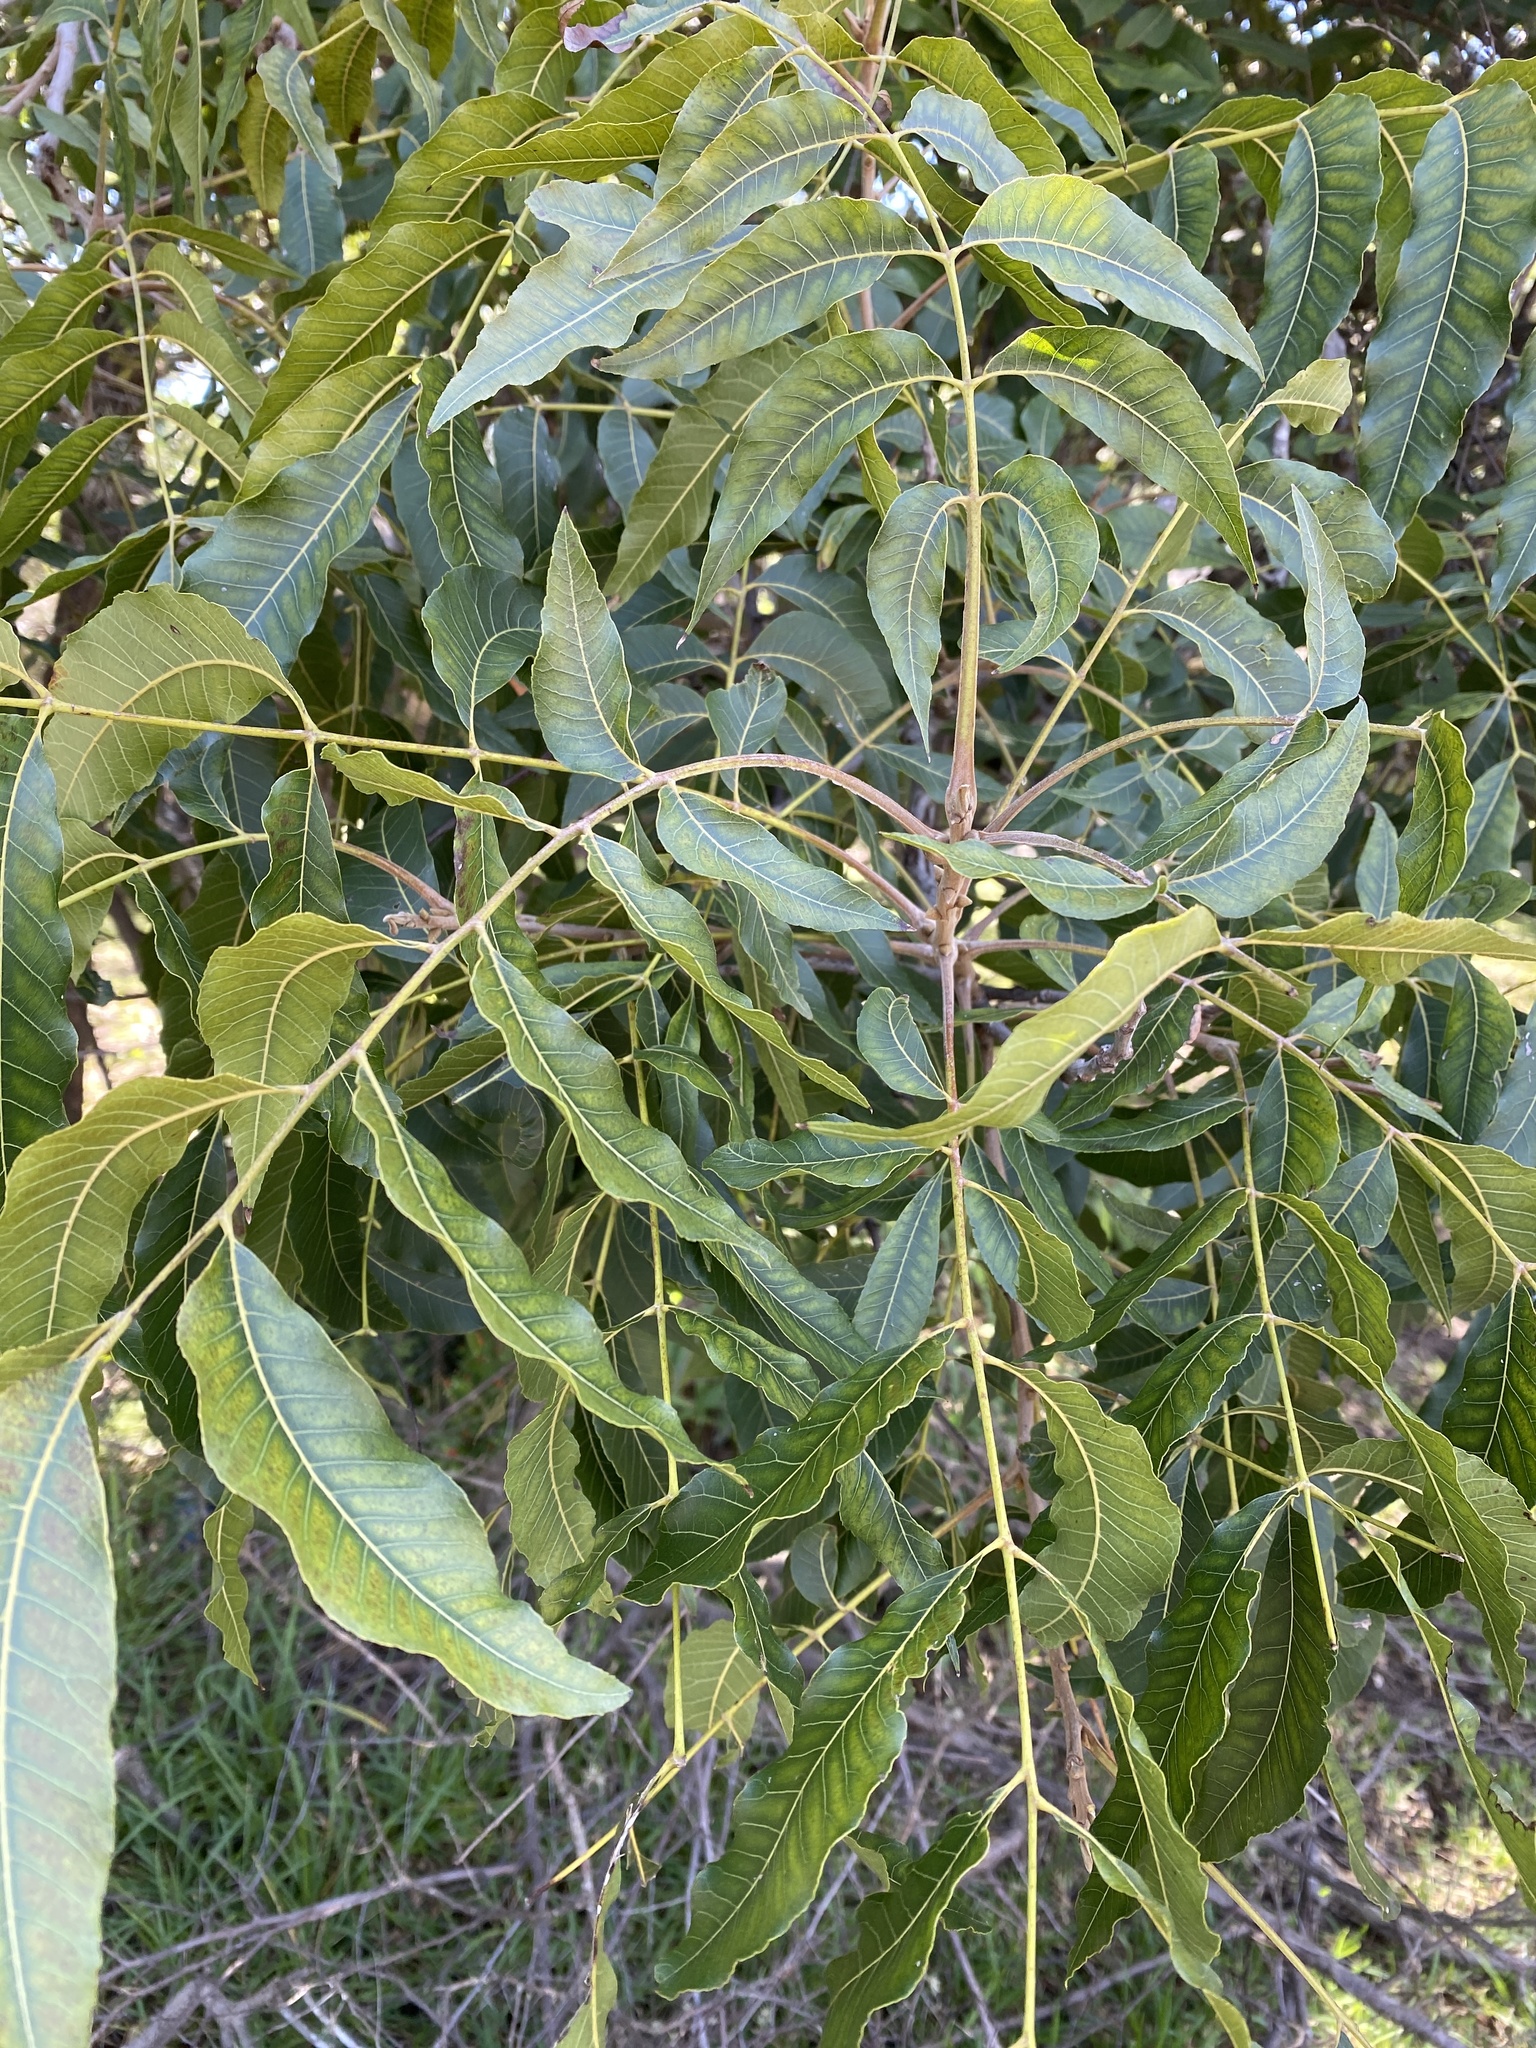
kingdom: Plantae
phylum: Tracheophyta
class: Magnoliopsida
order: Fagales
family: Juglandaceae
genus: Carya
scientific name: Carya illinoinensis
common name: Pecan
